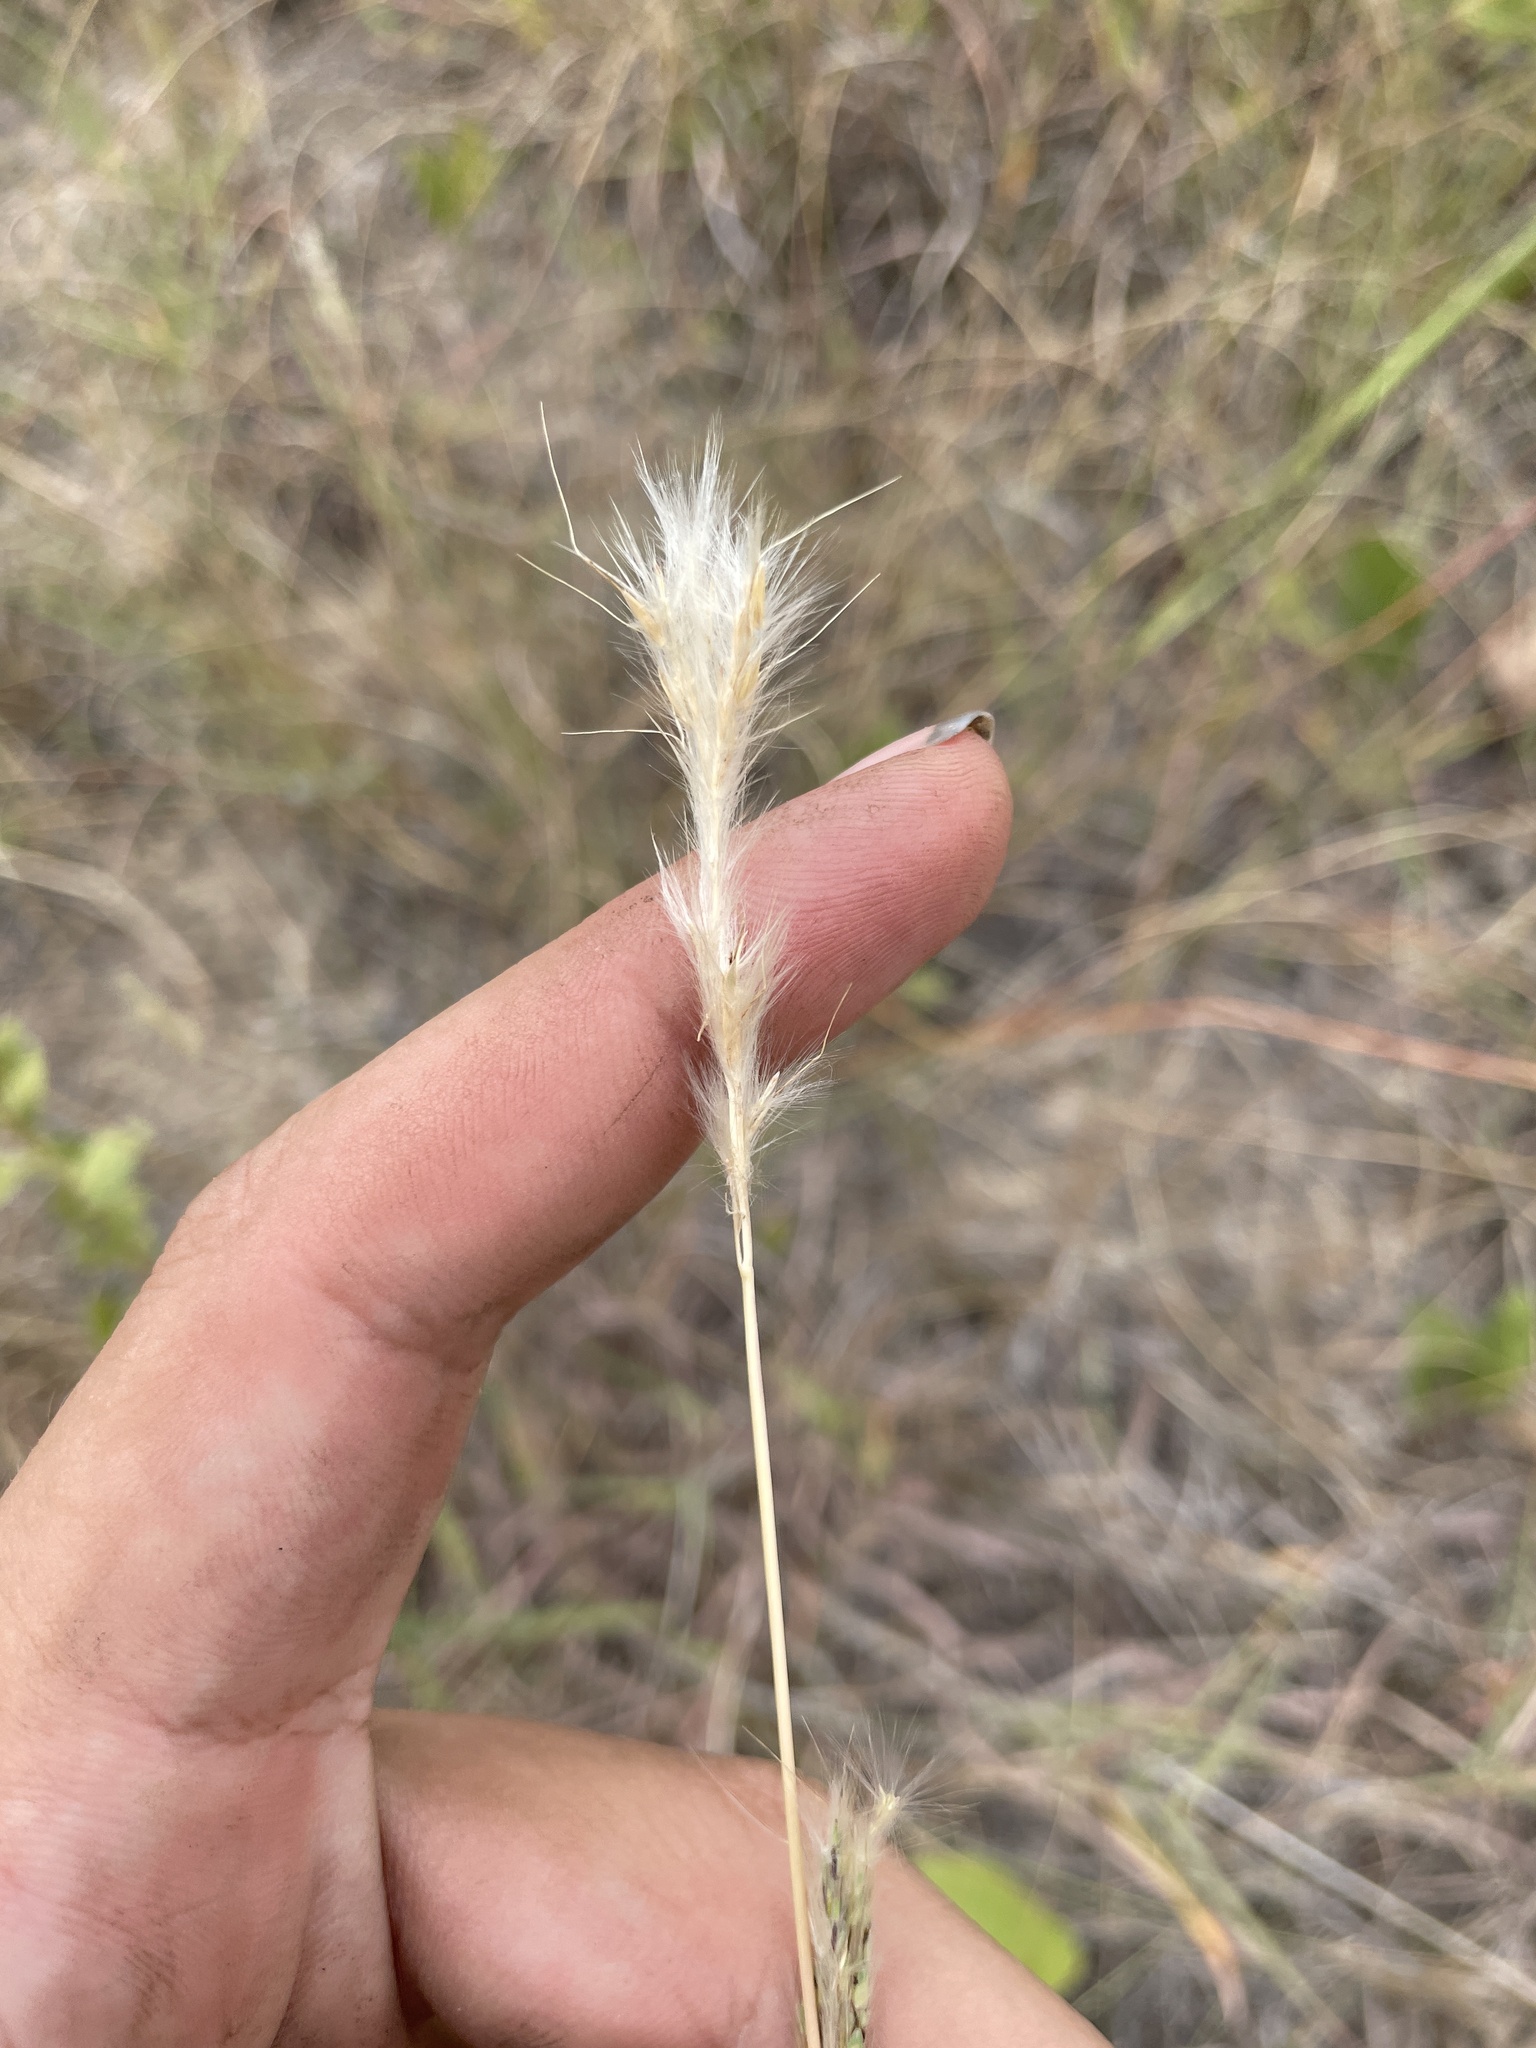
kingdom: Plantae
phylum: Tracheophyta
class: Liliopsida
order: Poales
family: Poaceae
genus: Bothriochloa
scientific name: Bothriochloa torreyana
